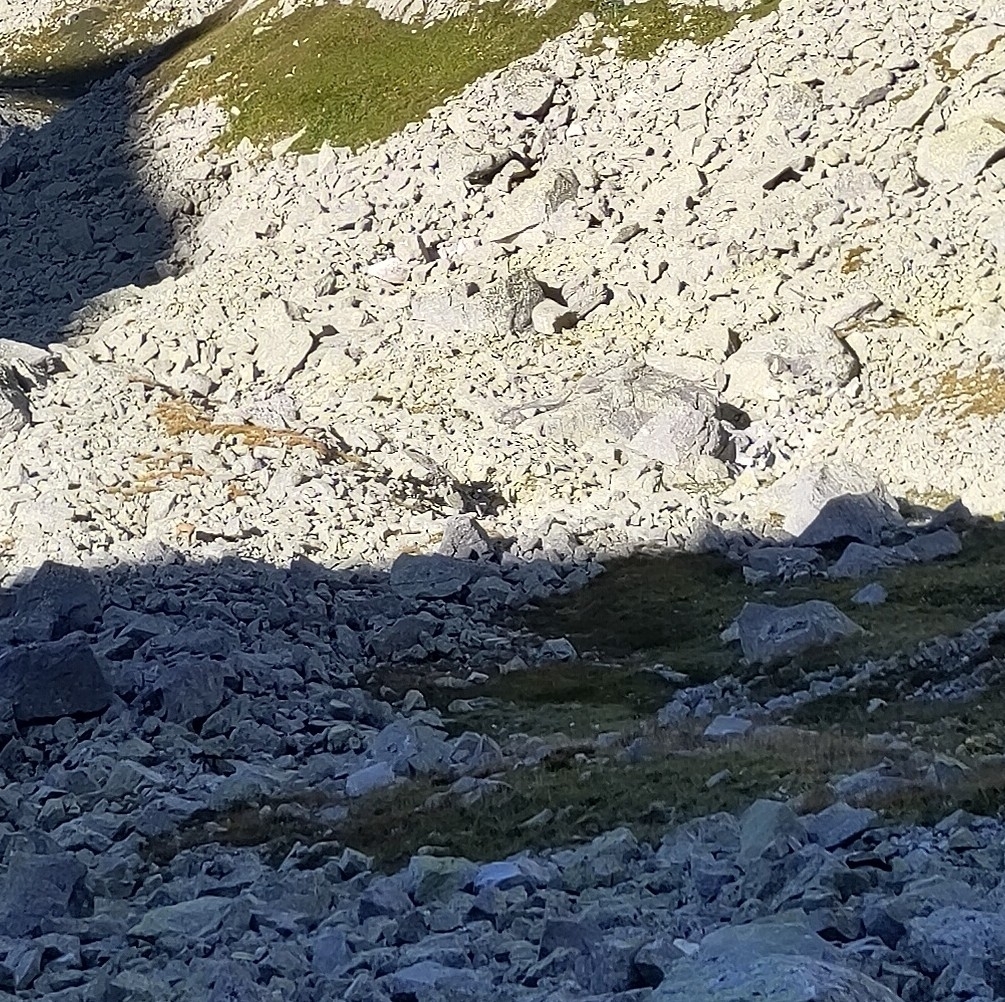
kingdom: Animalia
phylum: Chordata
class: Mammalia
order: Artiodactyla
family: Bovidae
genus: Rupicapra
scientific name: Rupicapra rupicapra
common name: Chamois
